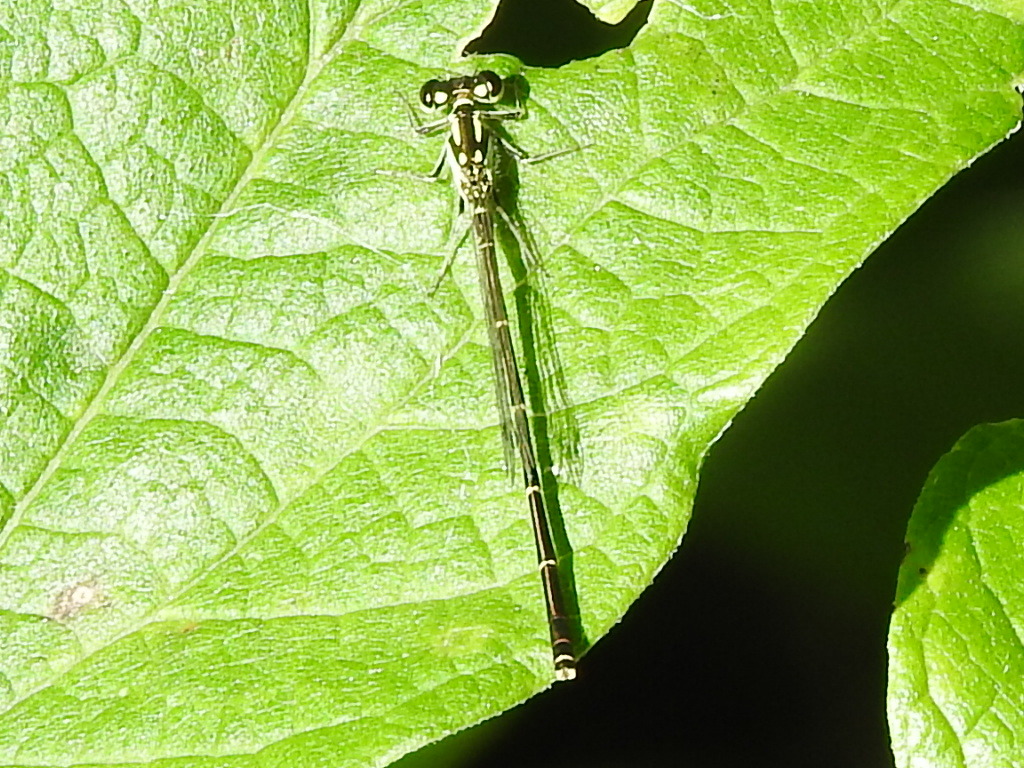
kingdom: Animalia
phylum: Arthropoda
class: Insecta
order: Odonata
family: Coenagrionidae
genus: Ischnura
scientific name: Ischnura posita
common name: Fragile forktail
